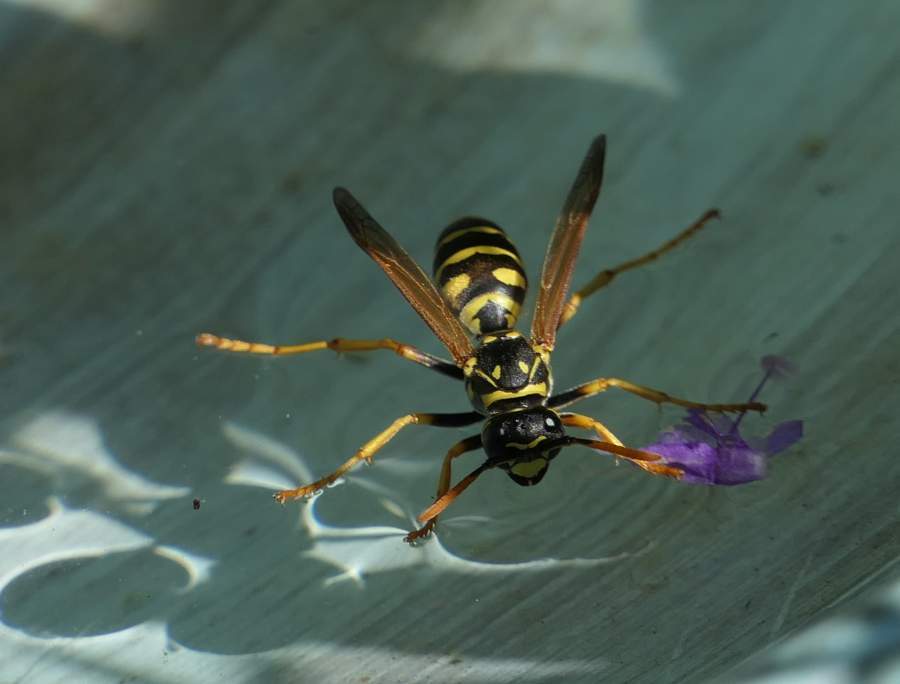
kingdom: Animalia
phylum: Arthropoda
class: Insecta
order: Hymenoptera
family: Eumenidae
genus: Polistes
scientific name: Polistes dominula
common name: Paper wasp
